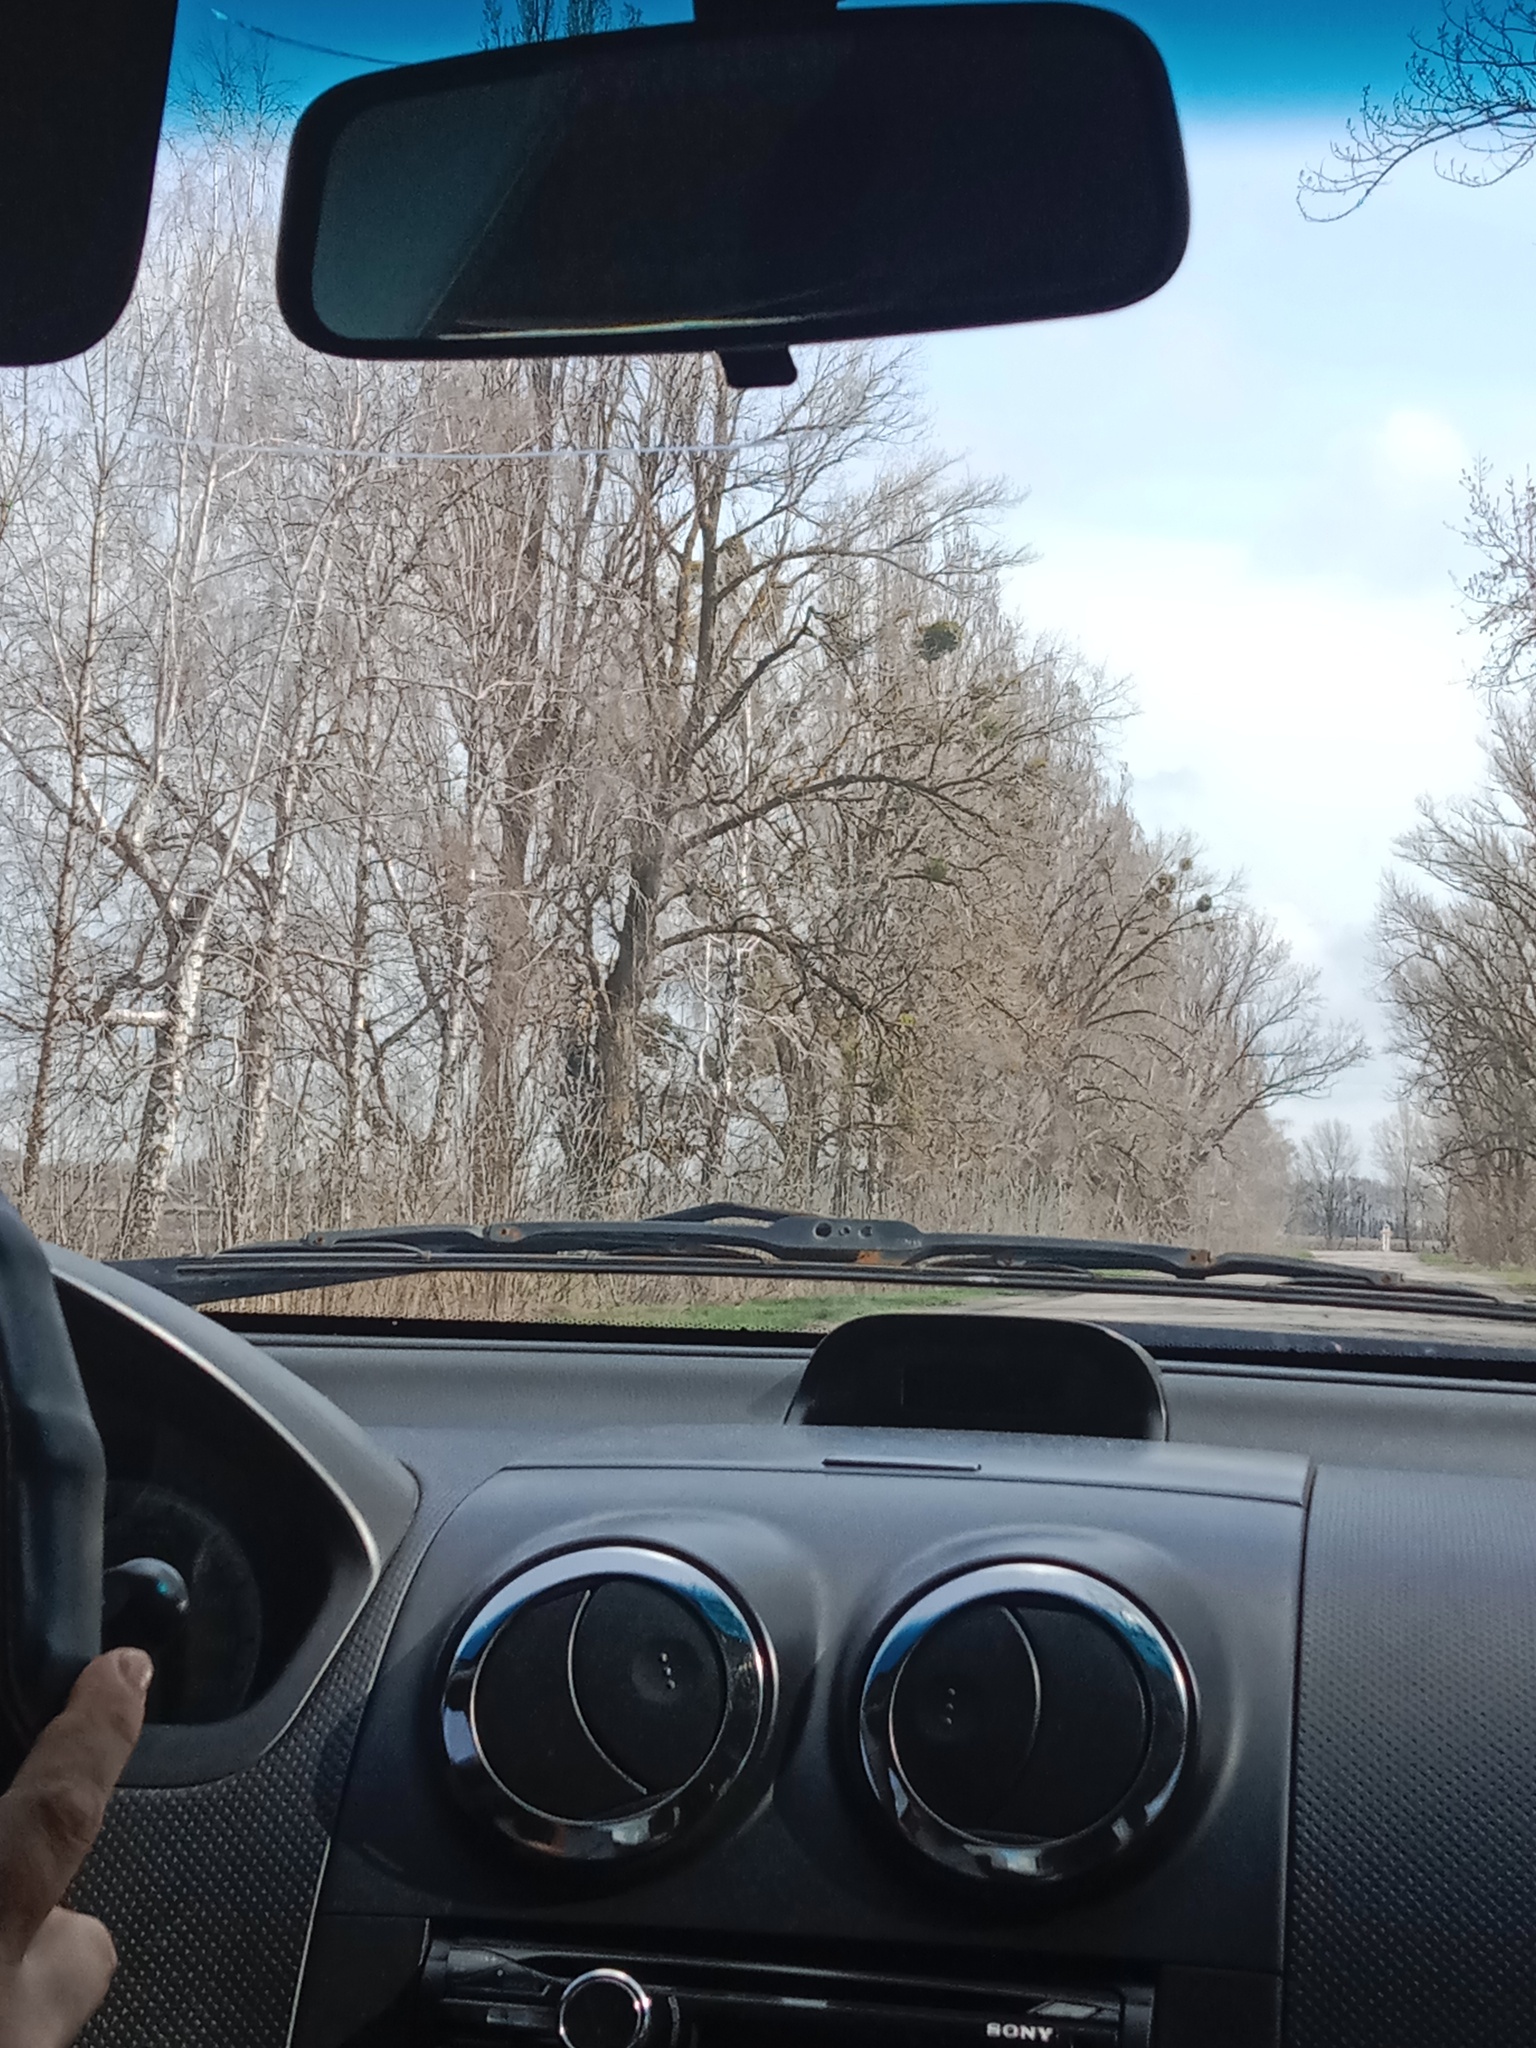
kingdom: Plantae
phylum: Tracheophyta
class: Magnoliopsida
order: Santalales
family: Viscaceae
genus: Viscum
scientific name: Viscum album
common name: Mistletoe
